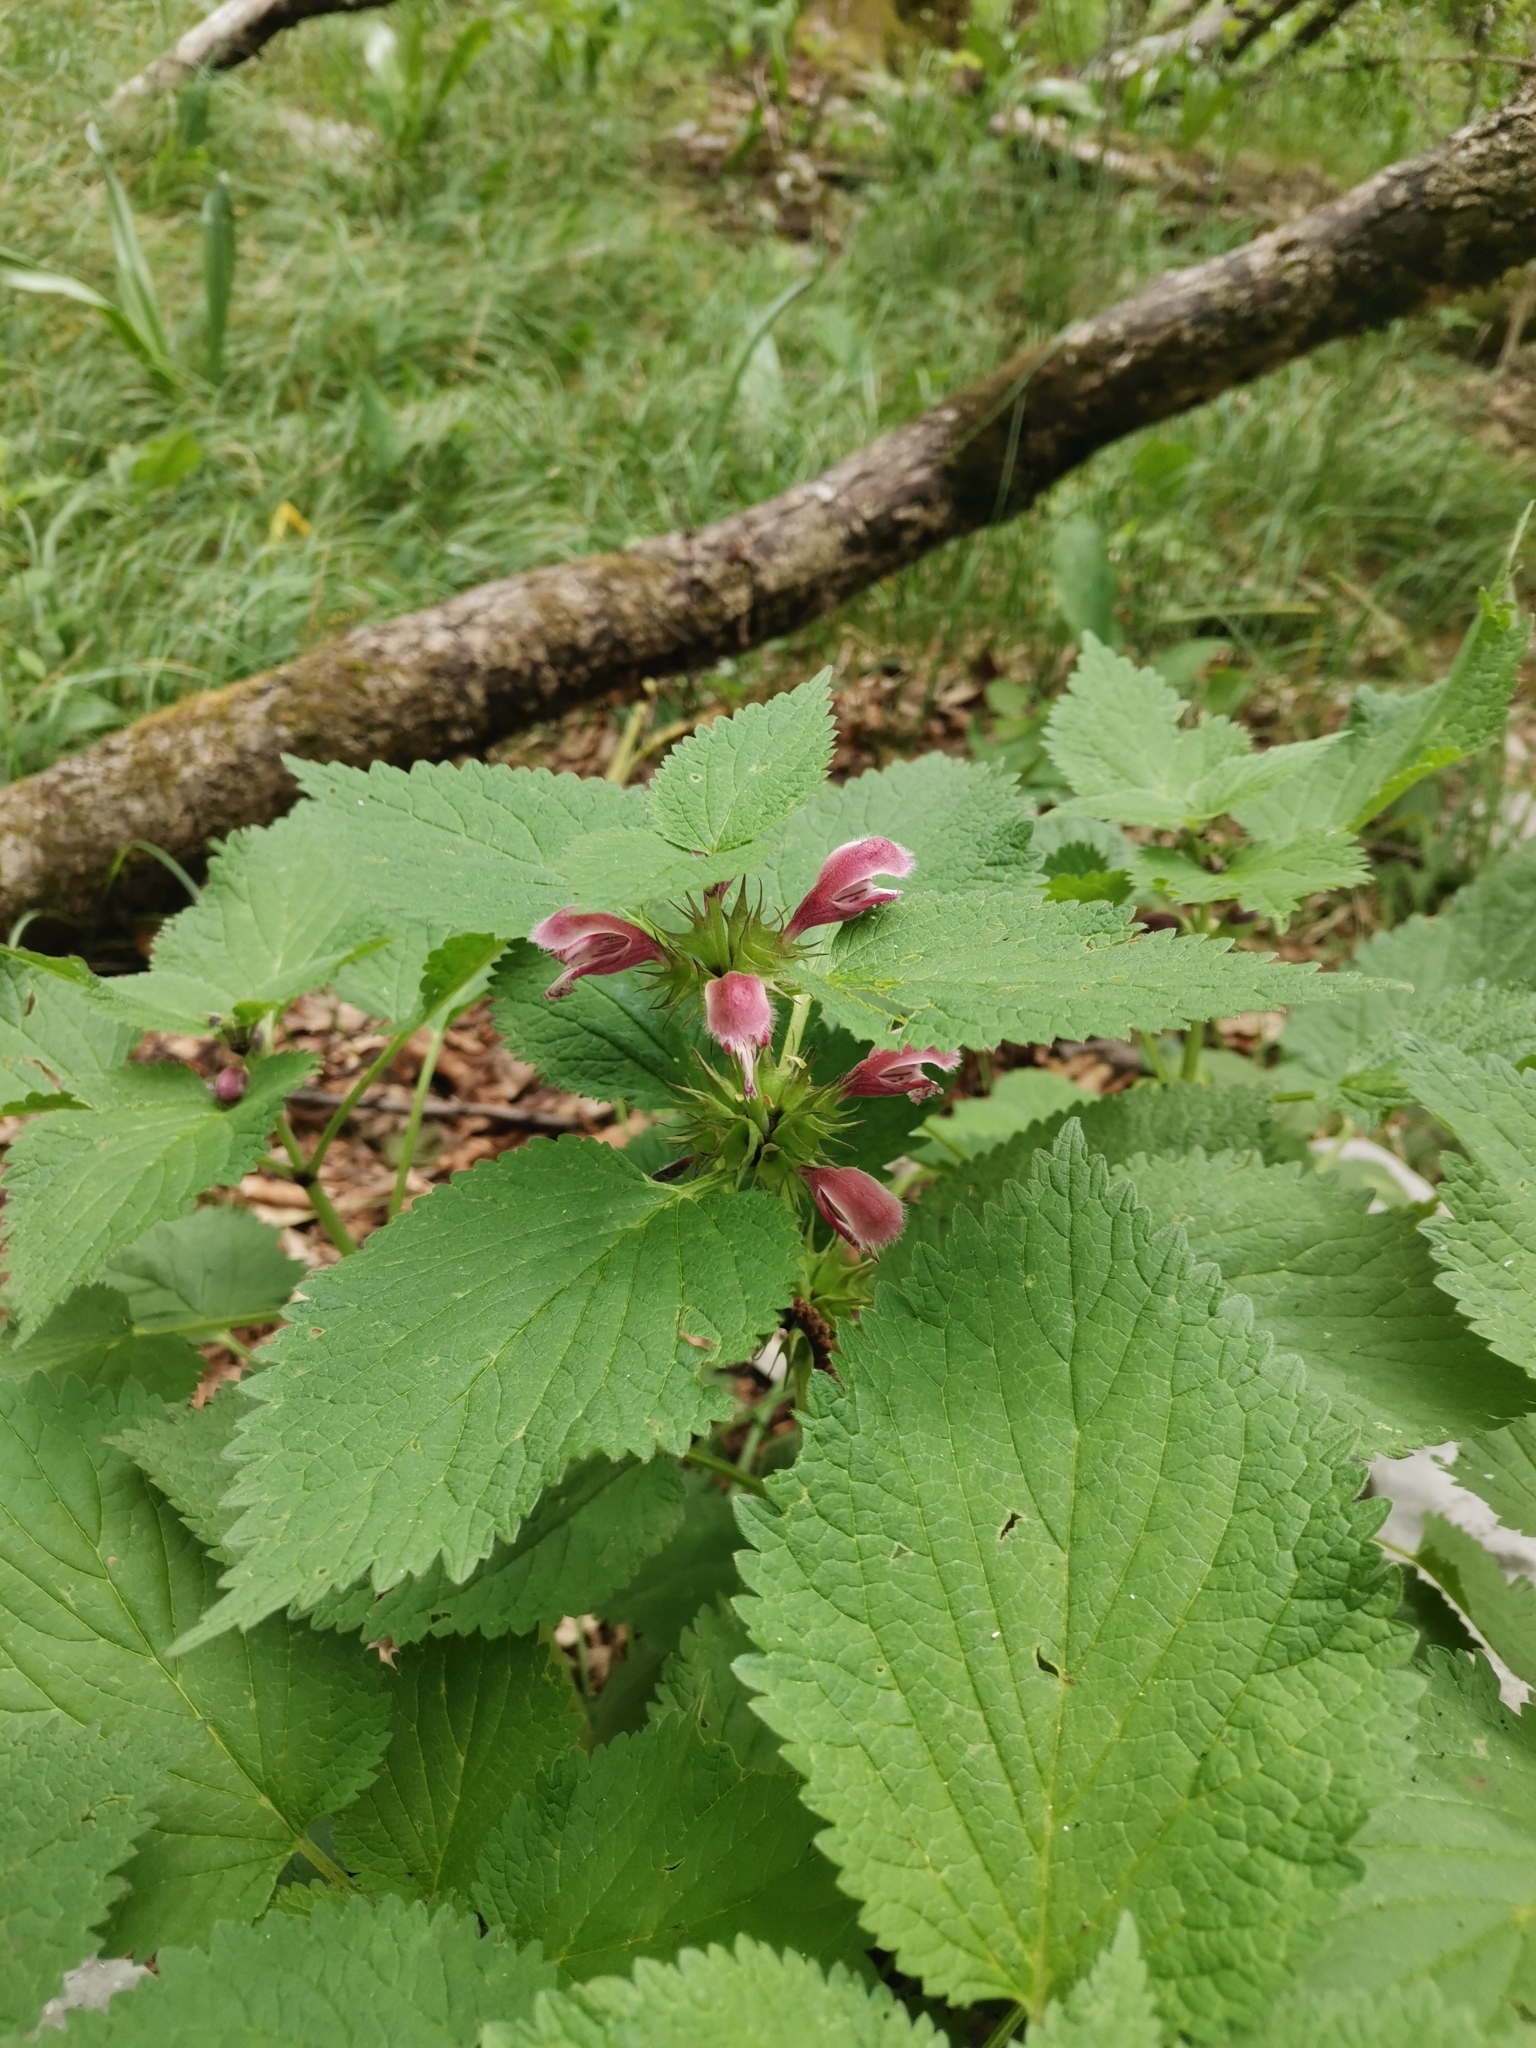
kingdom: Plantae
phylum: Tracheophyta
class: Magnoliopsida
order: Lamiales
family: Lamiaceae
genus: Lamium
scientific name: Lamium orvala
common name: Balm-leaved archangel
